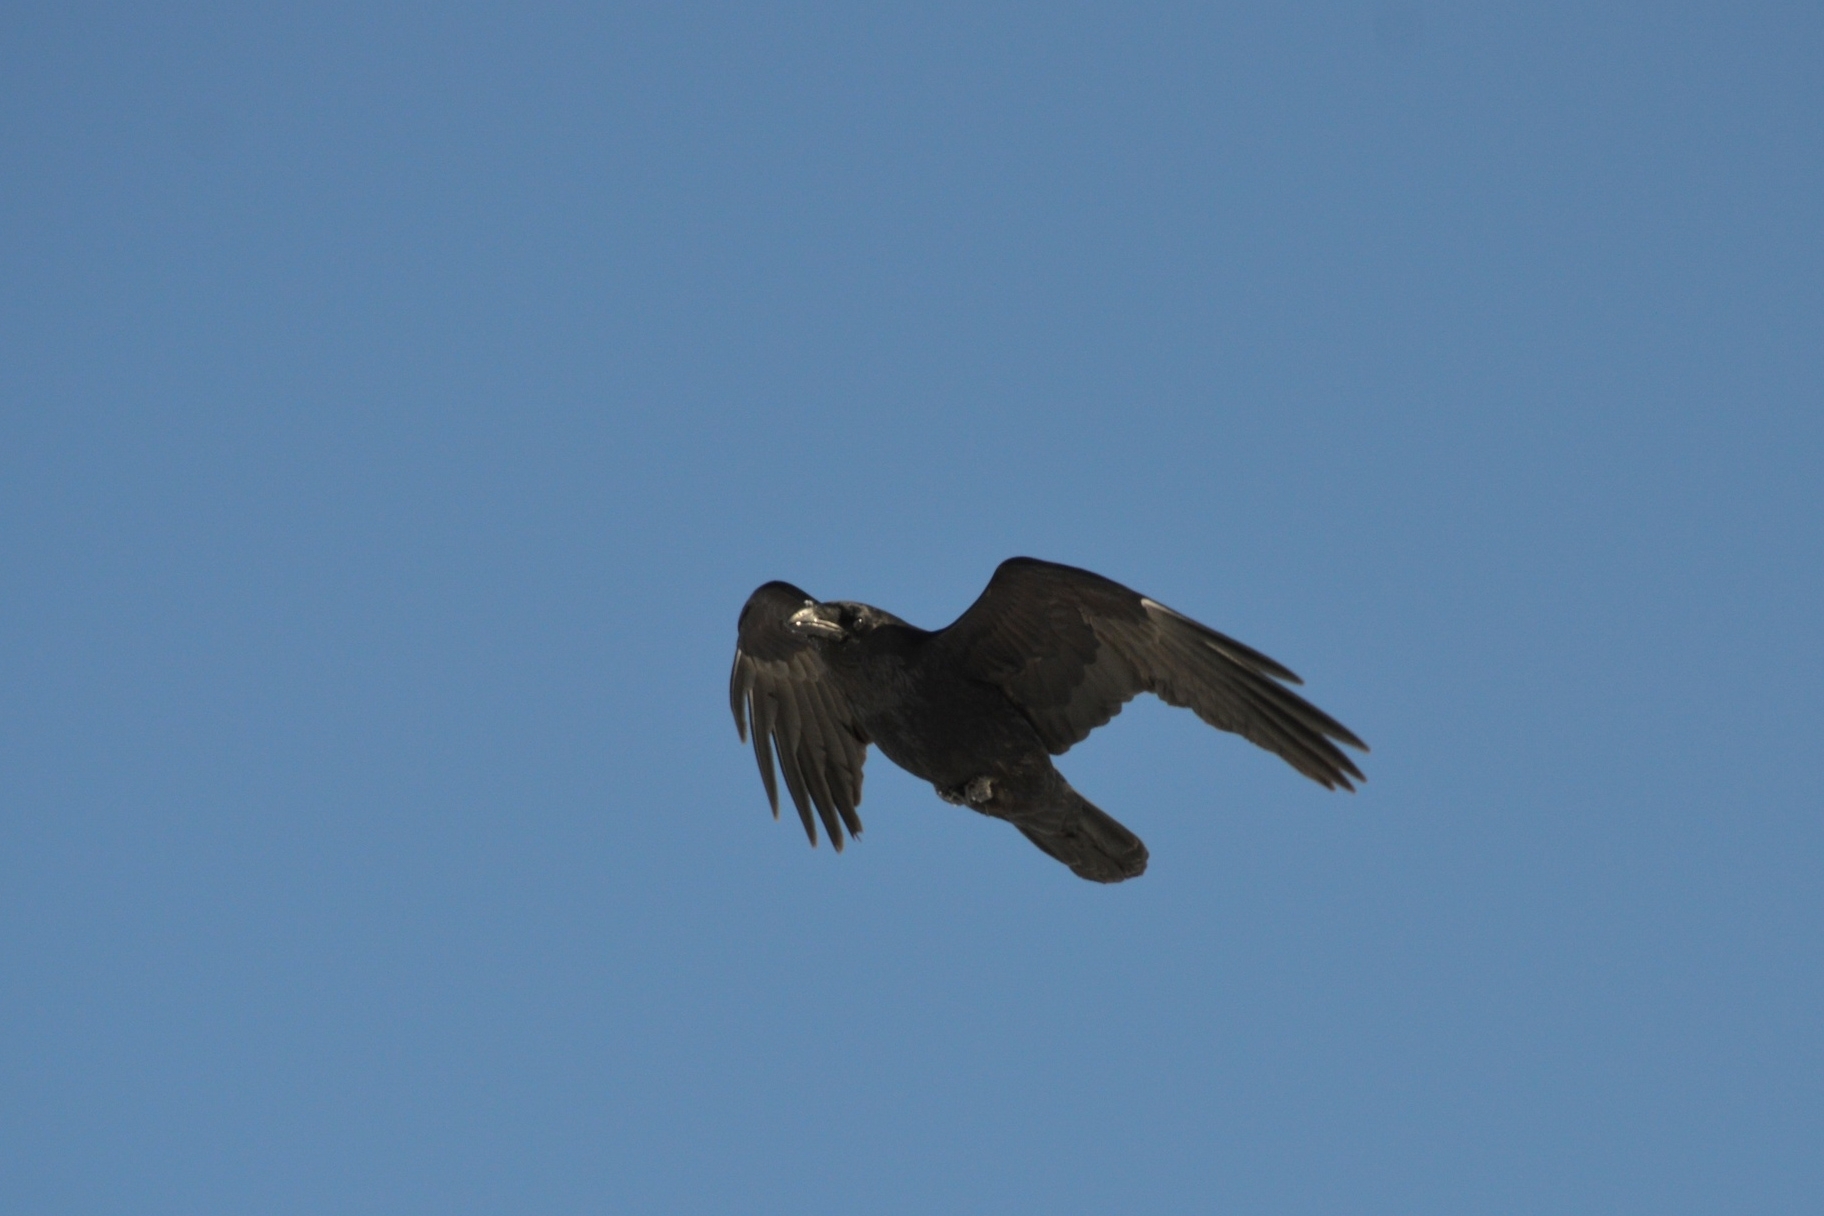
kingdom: Animalia
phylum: Chordata
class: Aves
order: Passeriformes
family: Corvidae
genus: Corvus
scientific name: Corvus corax
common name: Common raven
